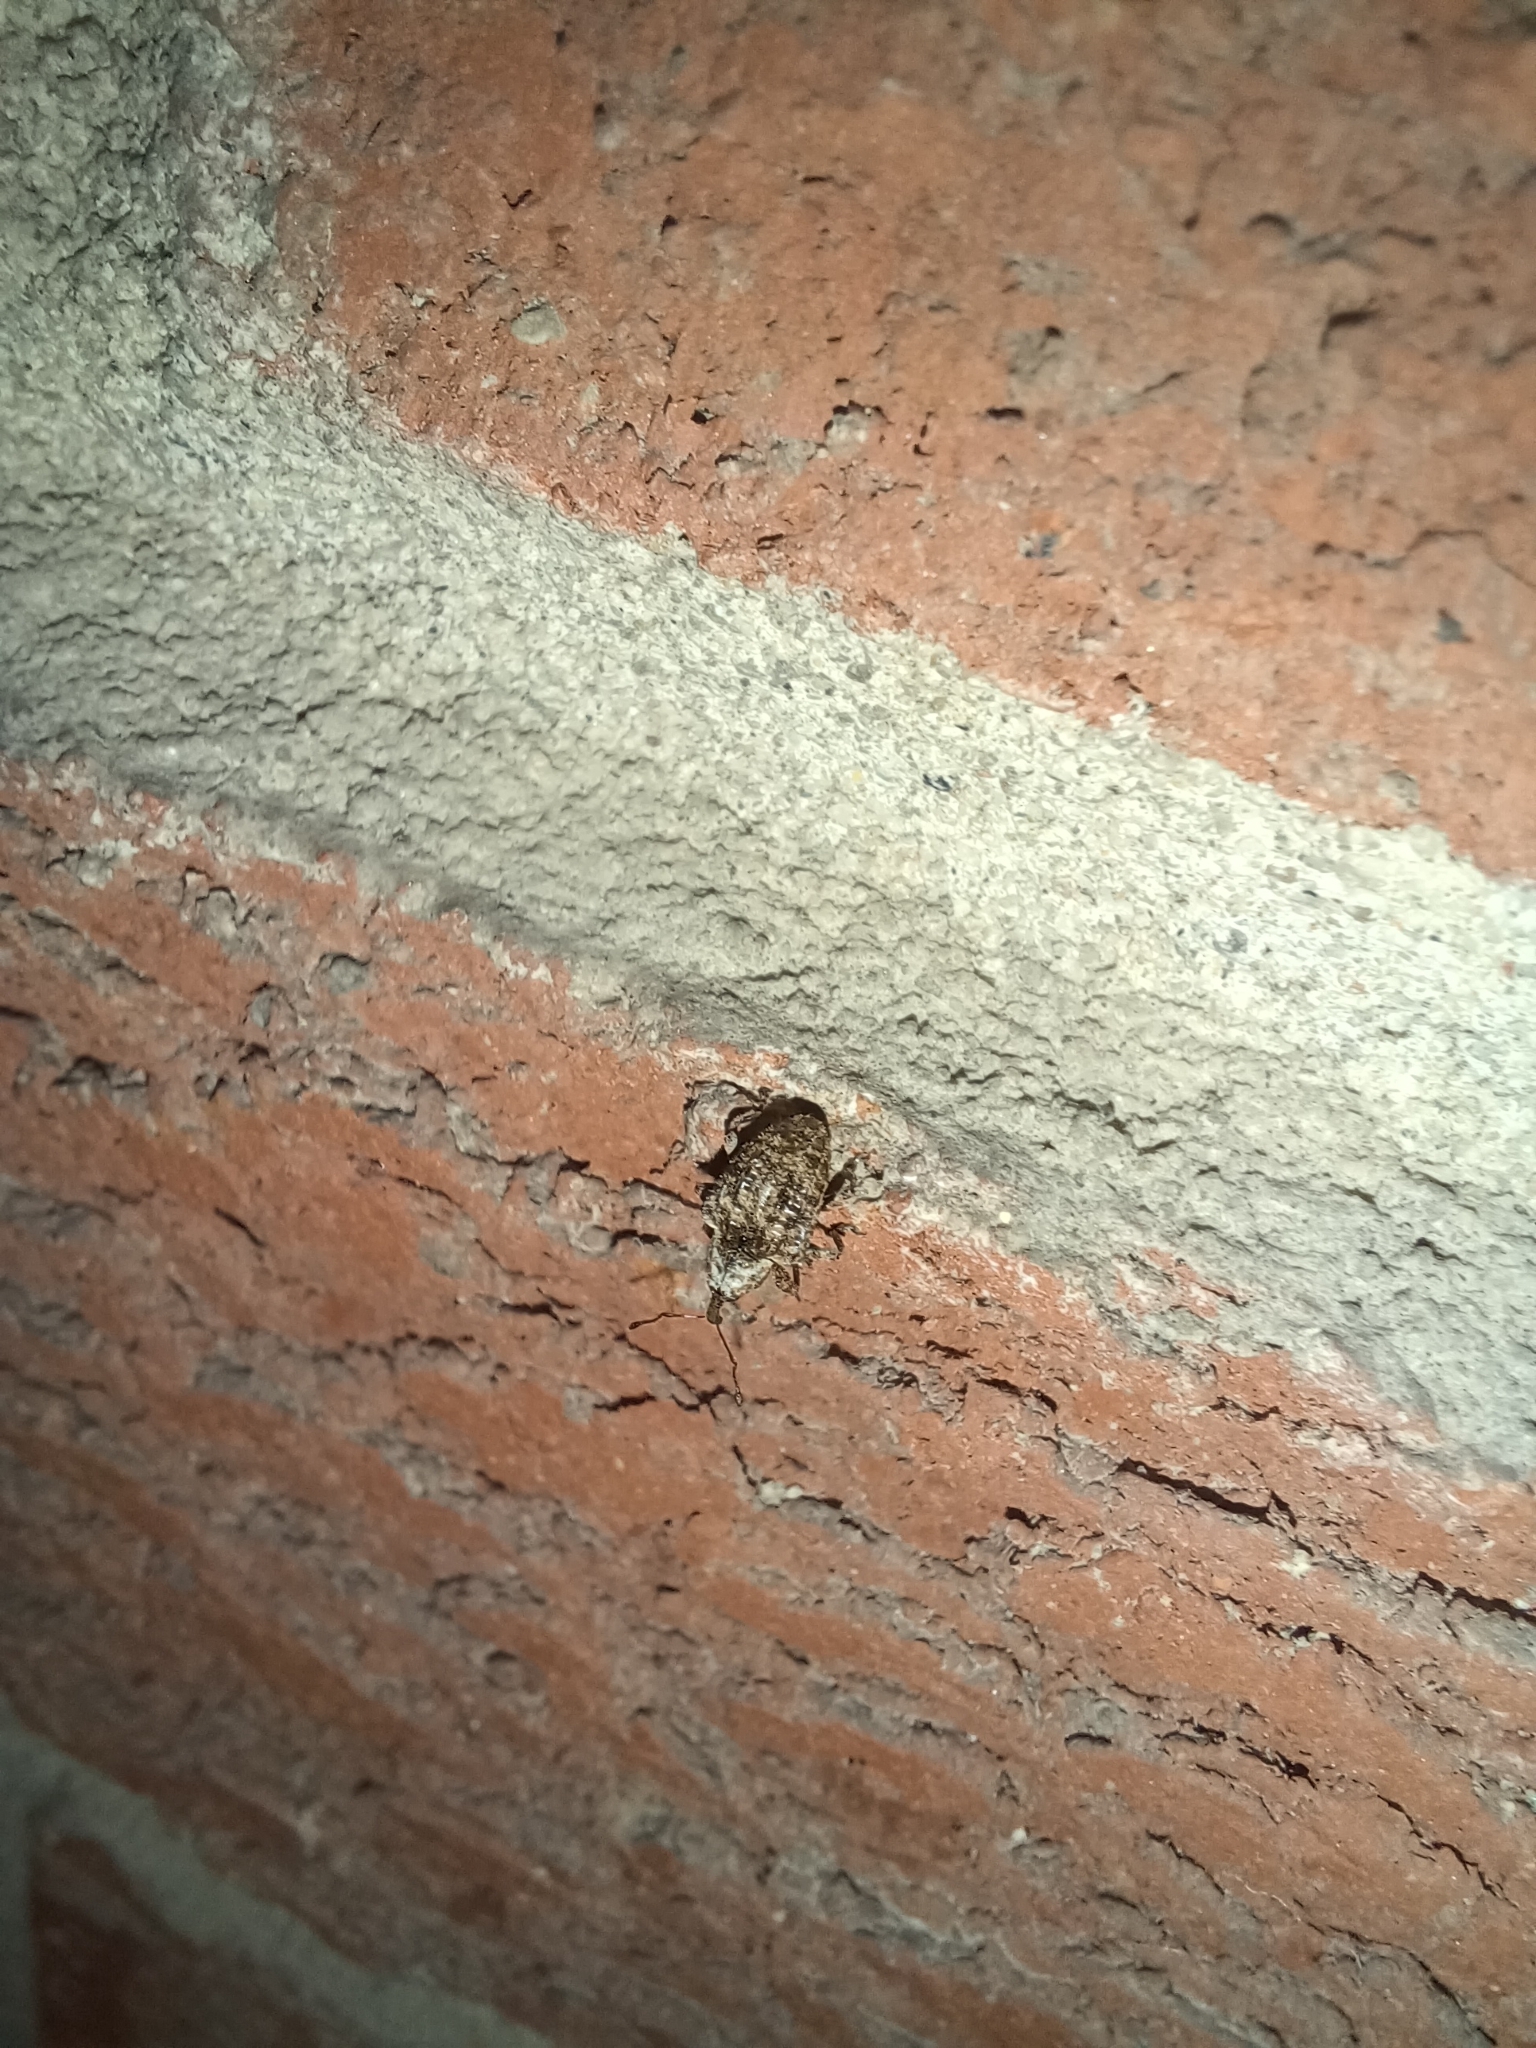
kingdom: Animalia
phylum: Arthropoda
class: Insecta
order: Coleoptera
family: Curculionidae
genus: Conotrachelus
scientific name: Conotrachelus crataegi
